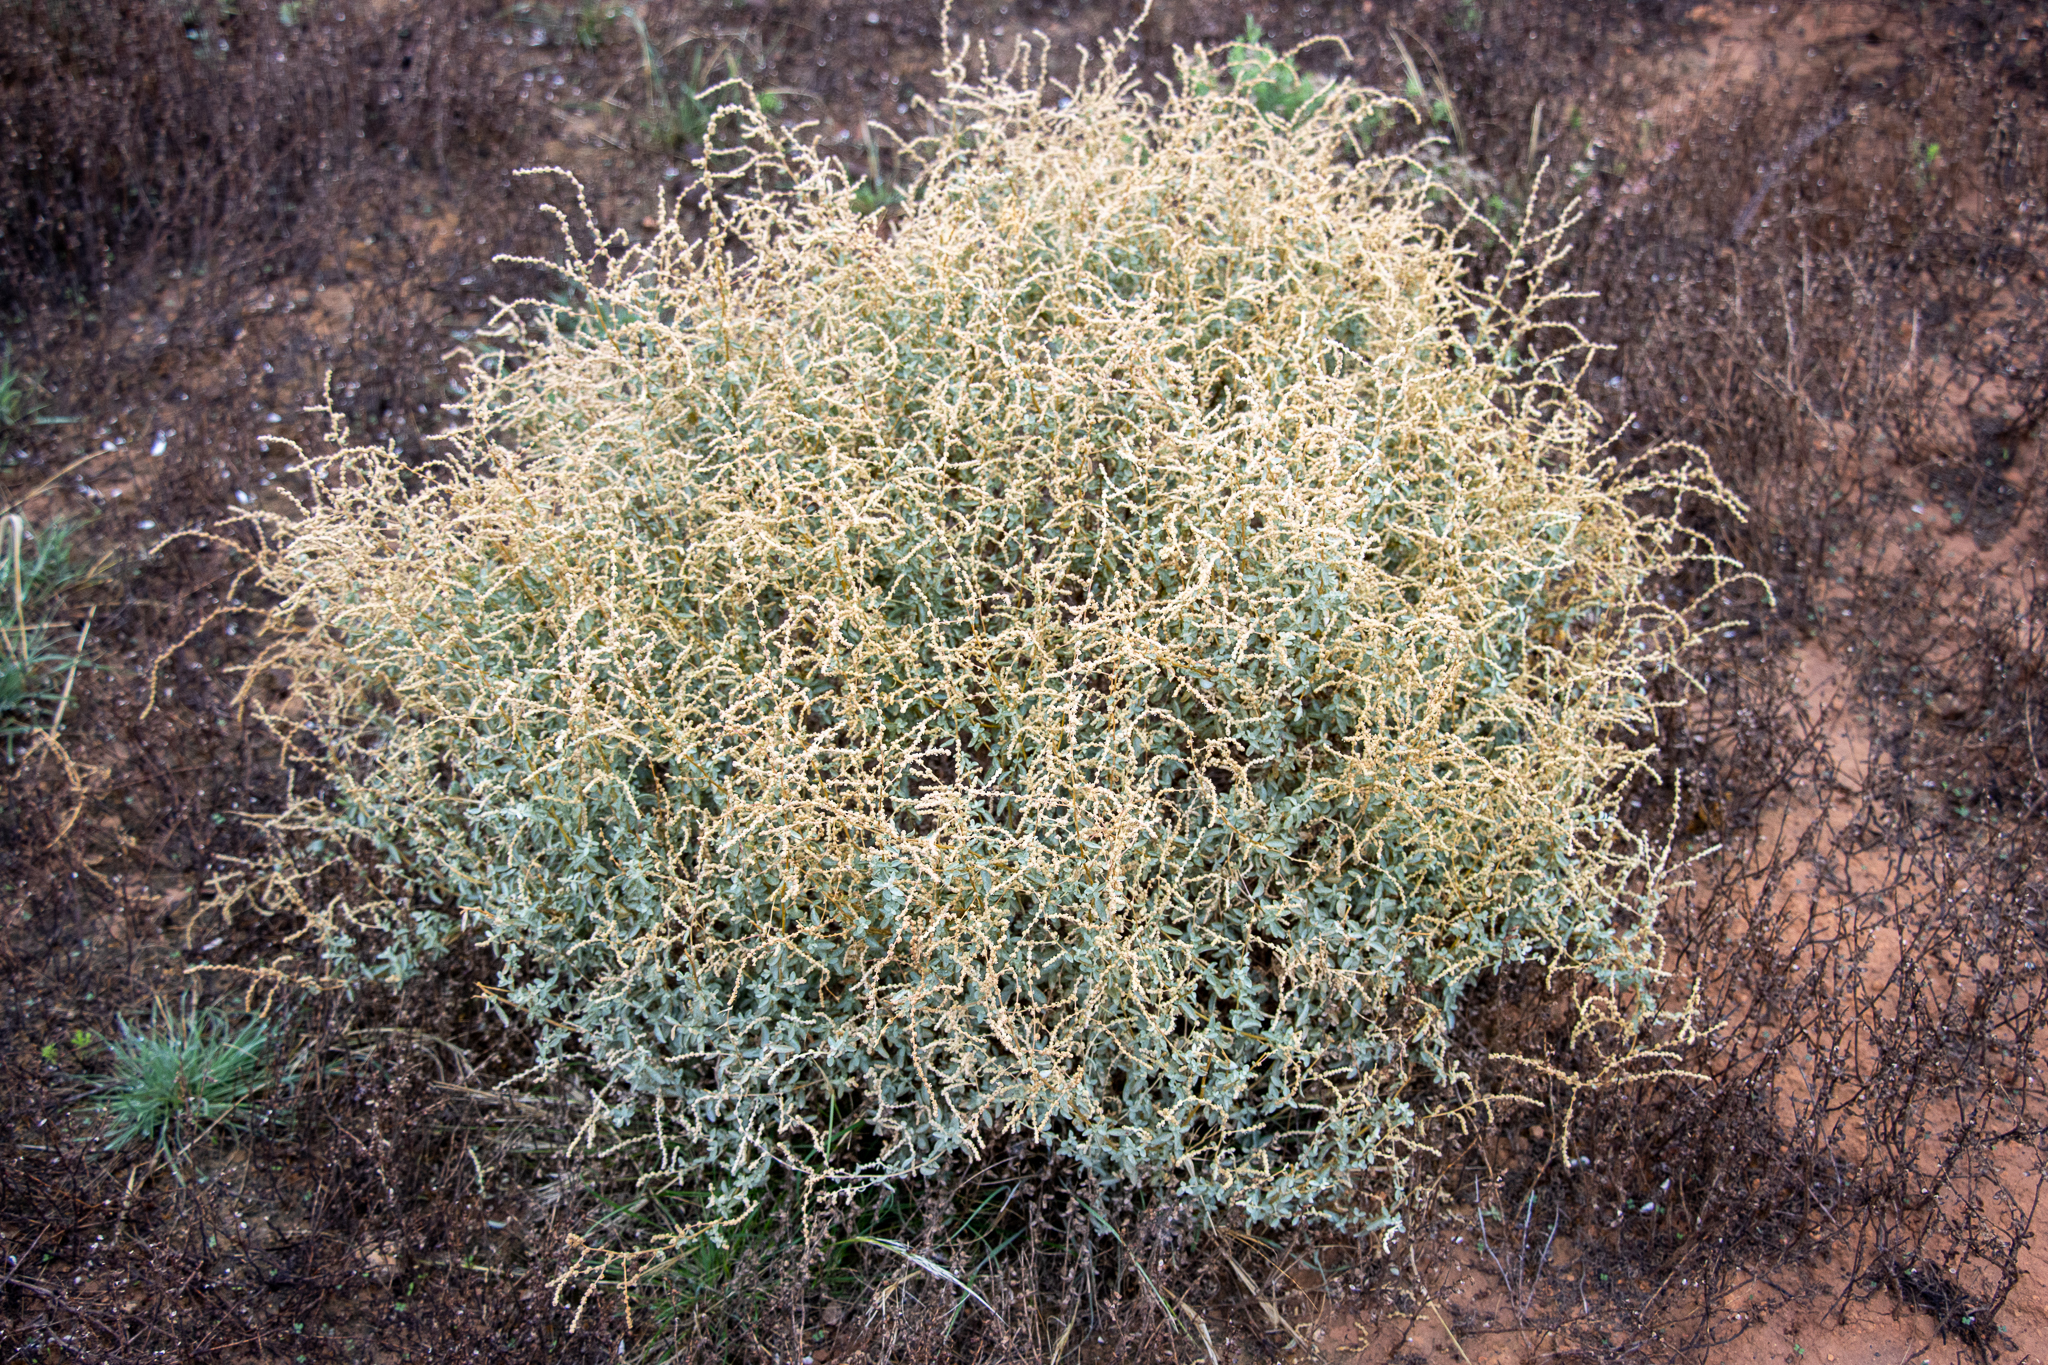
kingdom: Plantae
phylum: Tracheophyta
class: Magnoliopsida
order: Caryophyllales
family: Amaranthaceae
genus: Atriplex
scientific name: Atriplex stipitata
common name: Mallee saltbush
